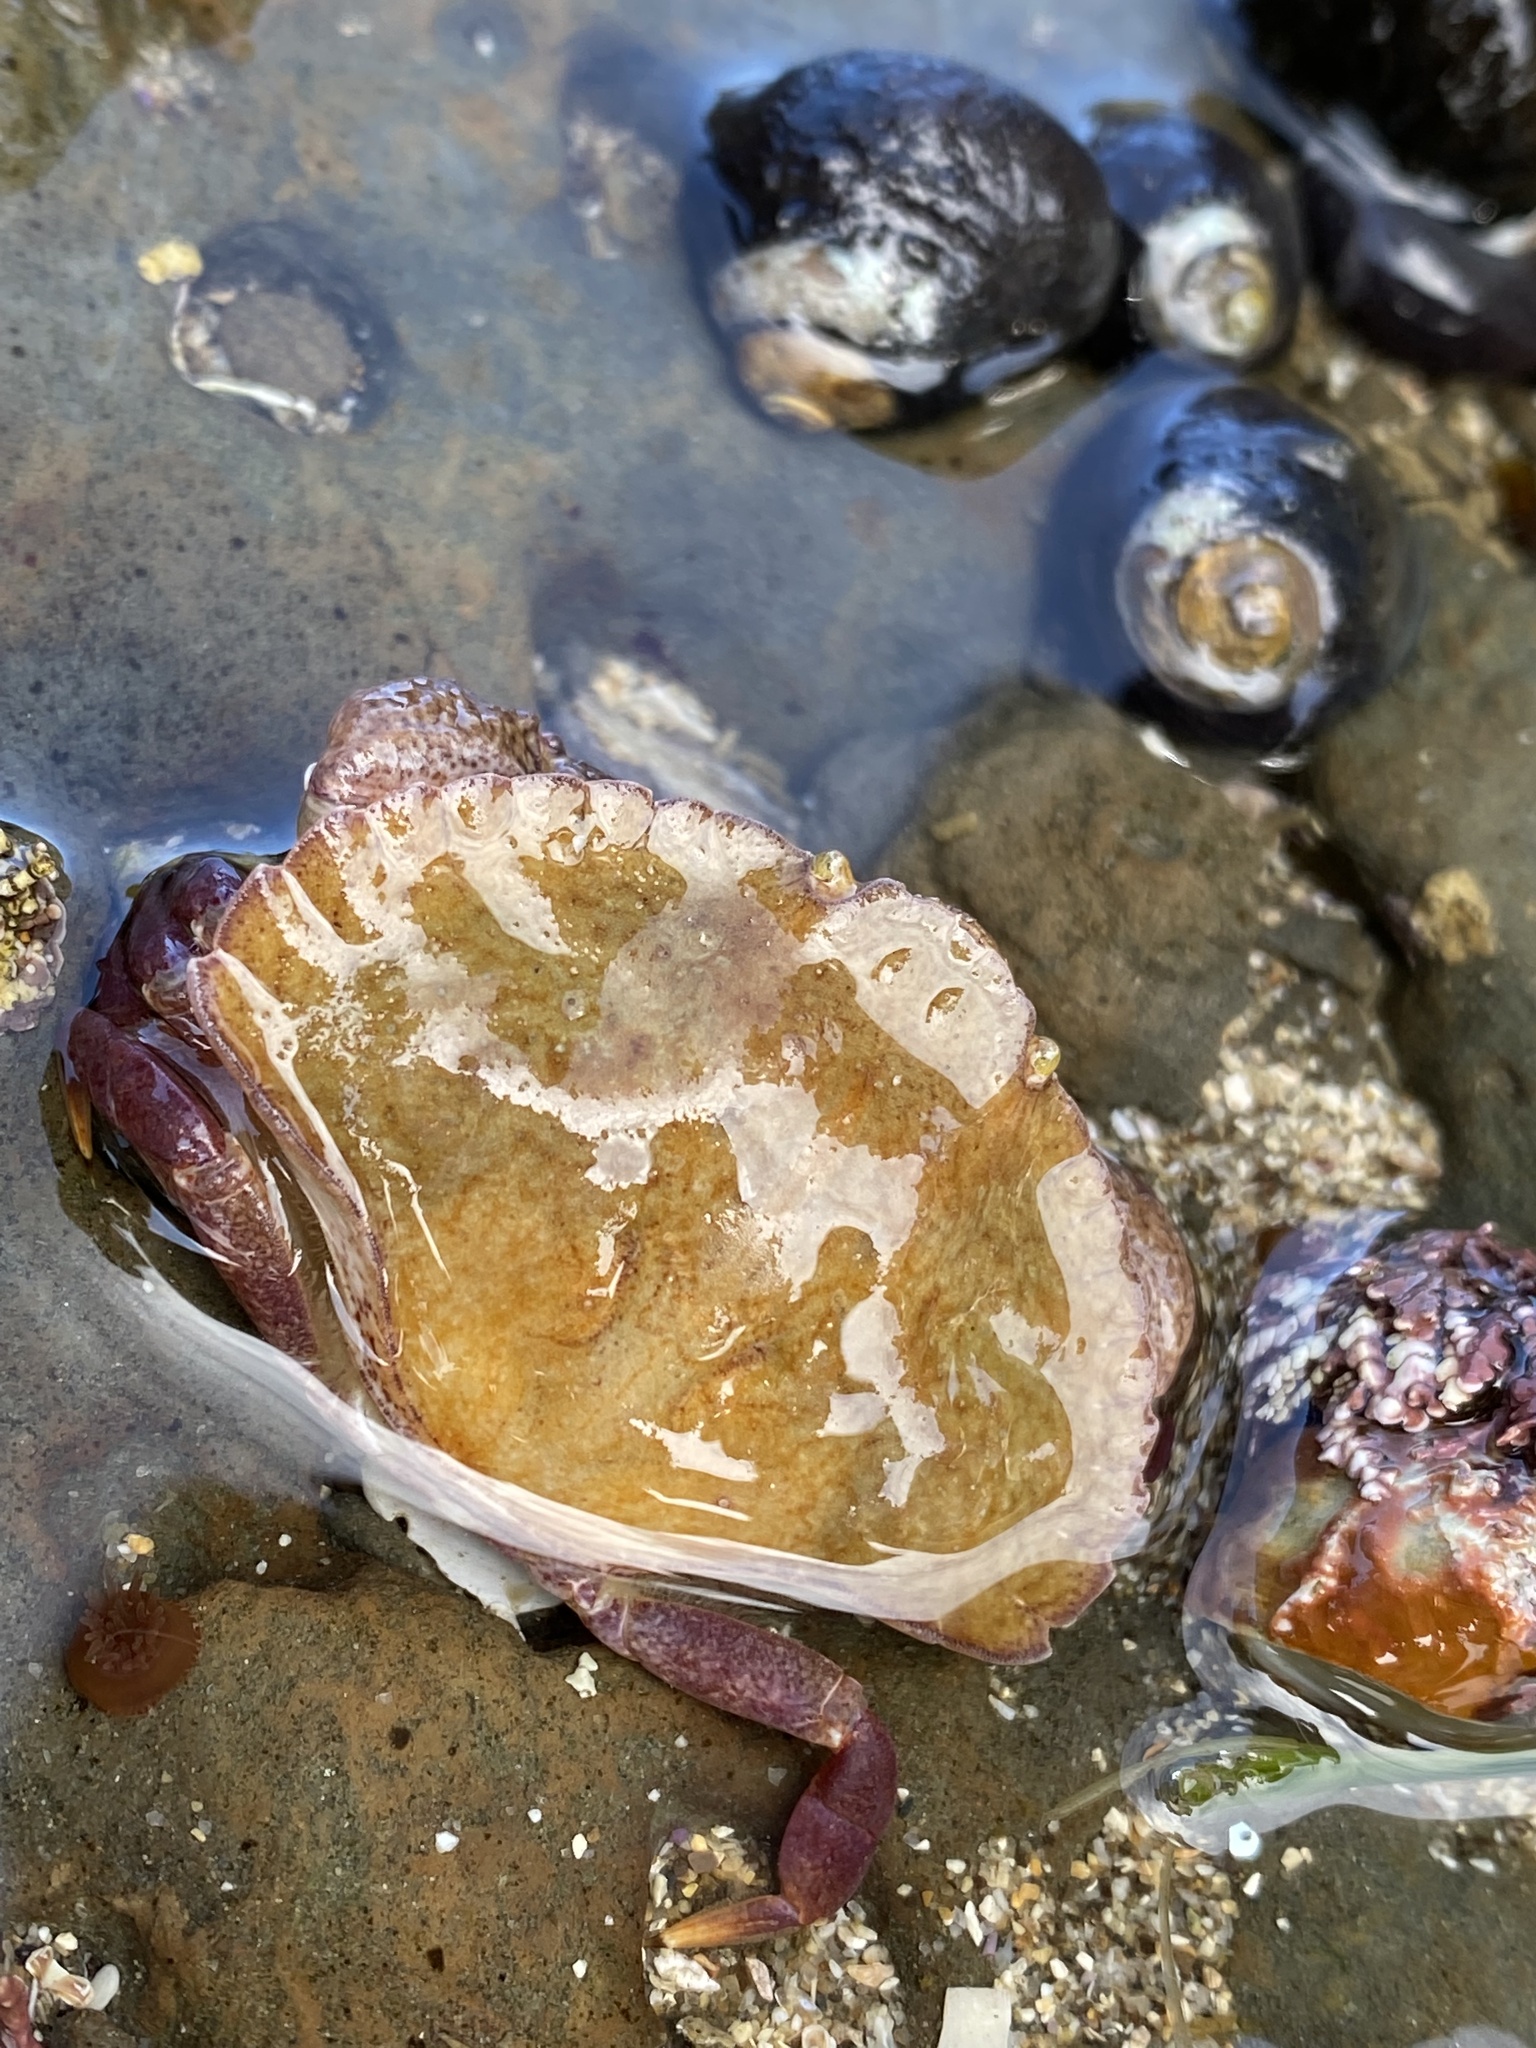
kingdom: Animalia
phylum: Arthropoda
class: Malacostraca
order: Decapoda
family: Cancridae
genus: Cancer
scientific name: Cancer productus
